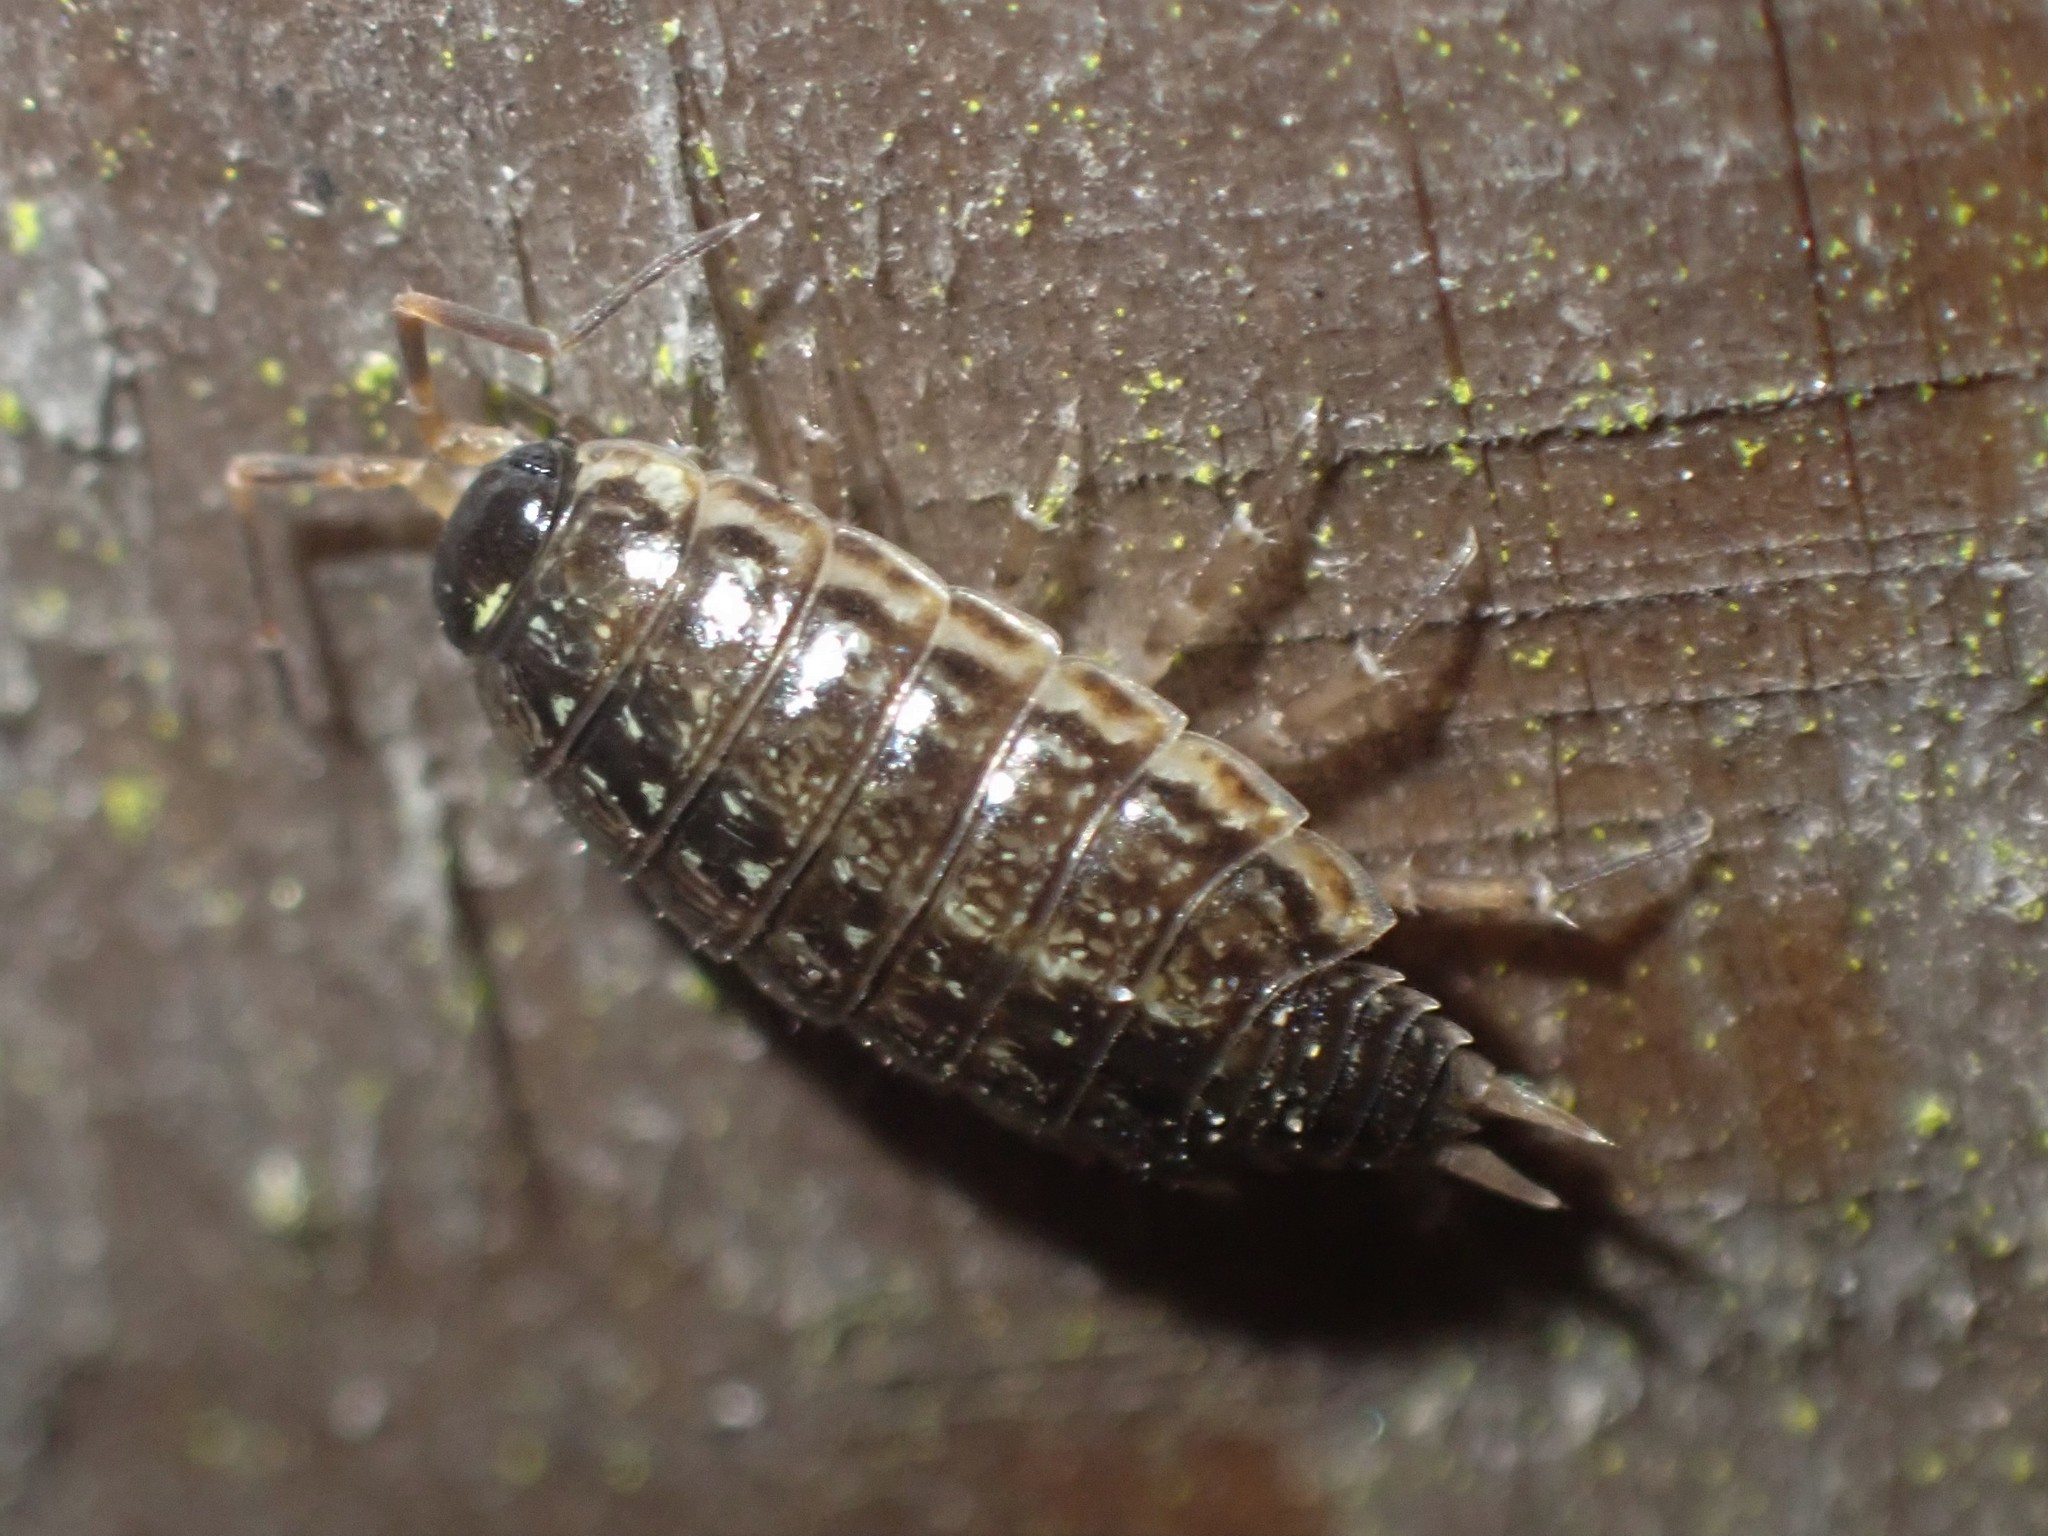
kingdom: Animalia
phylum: Arthropoda
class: Malacostraca
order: Isopoda
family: Philosciidae
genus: Philoscia
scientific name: Philoscia muscorum
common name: Common striped woodlouse
